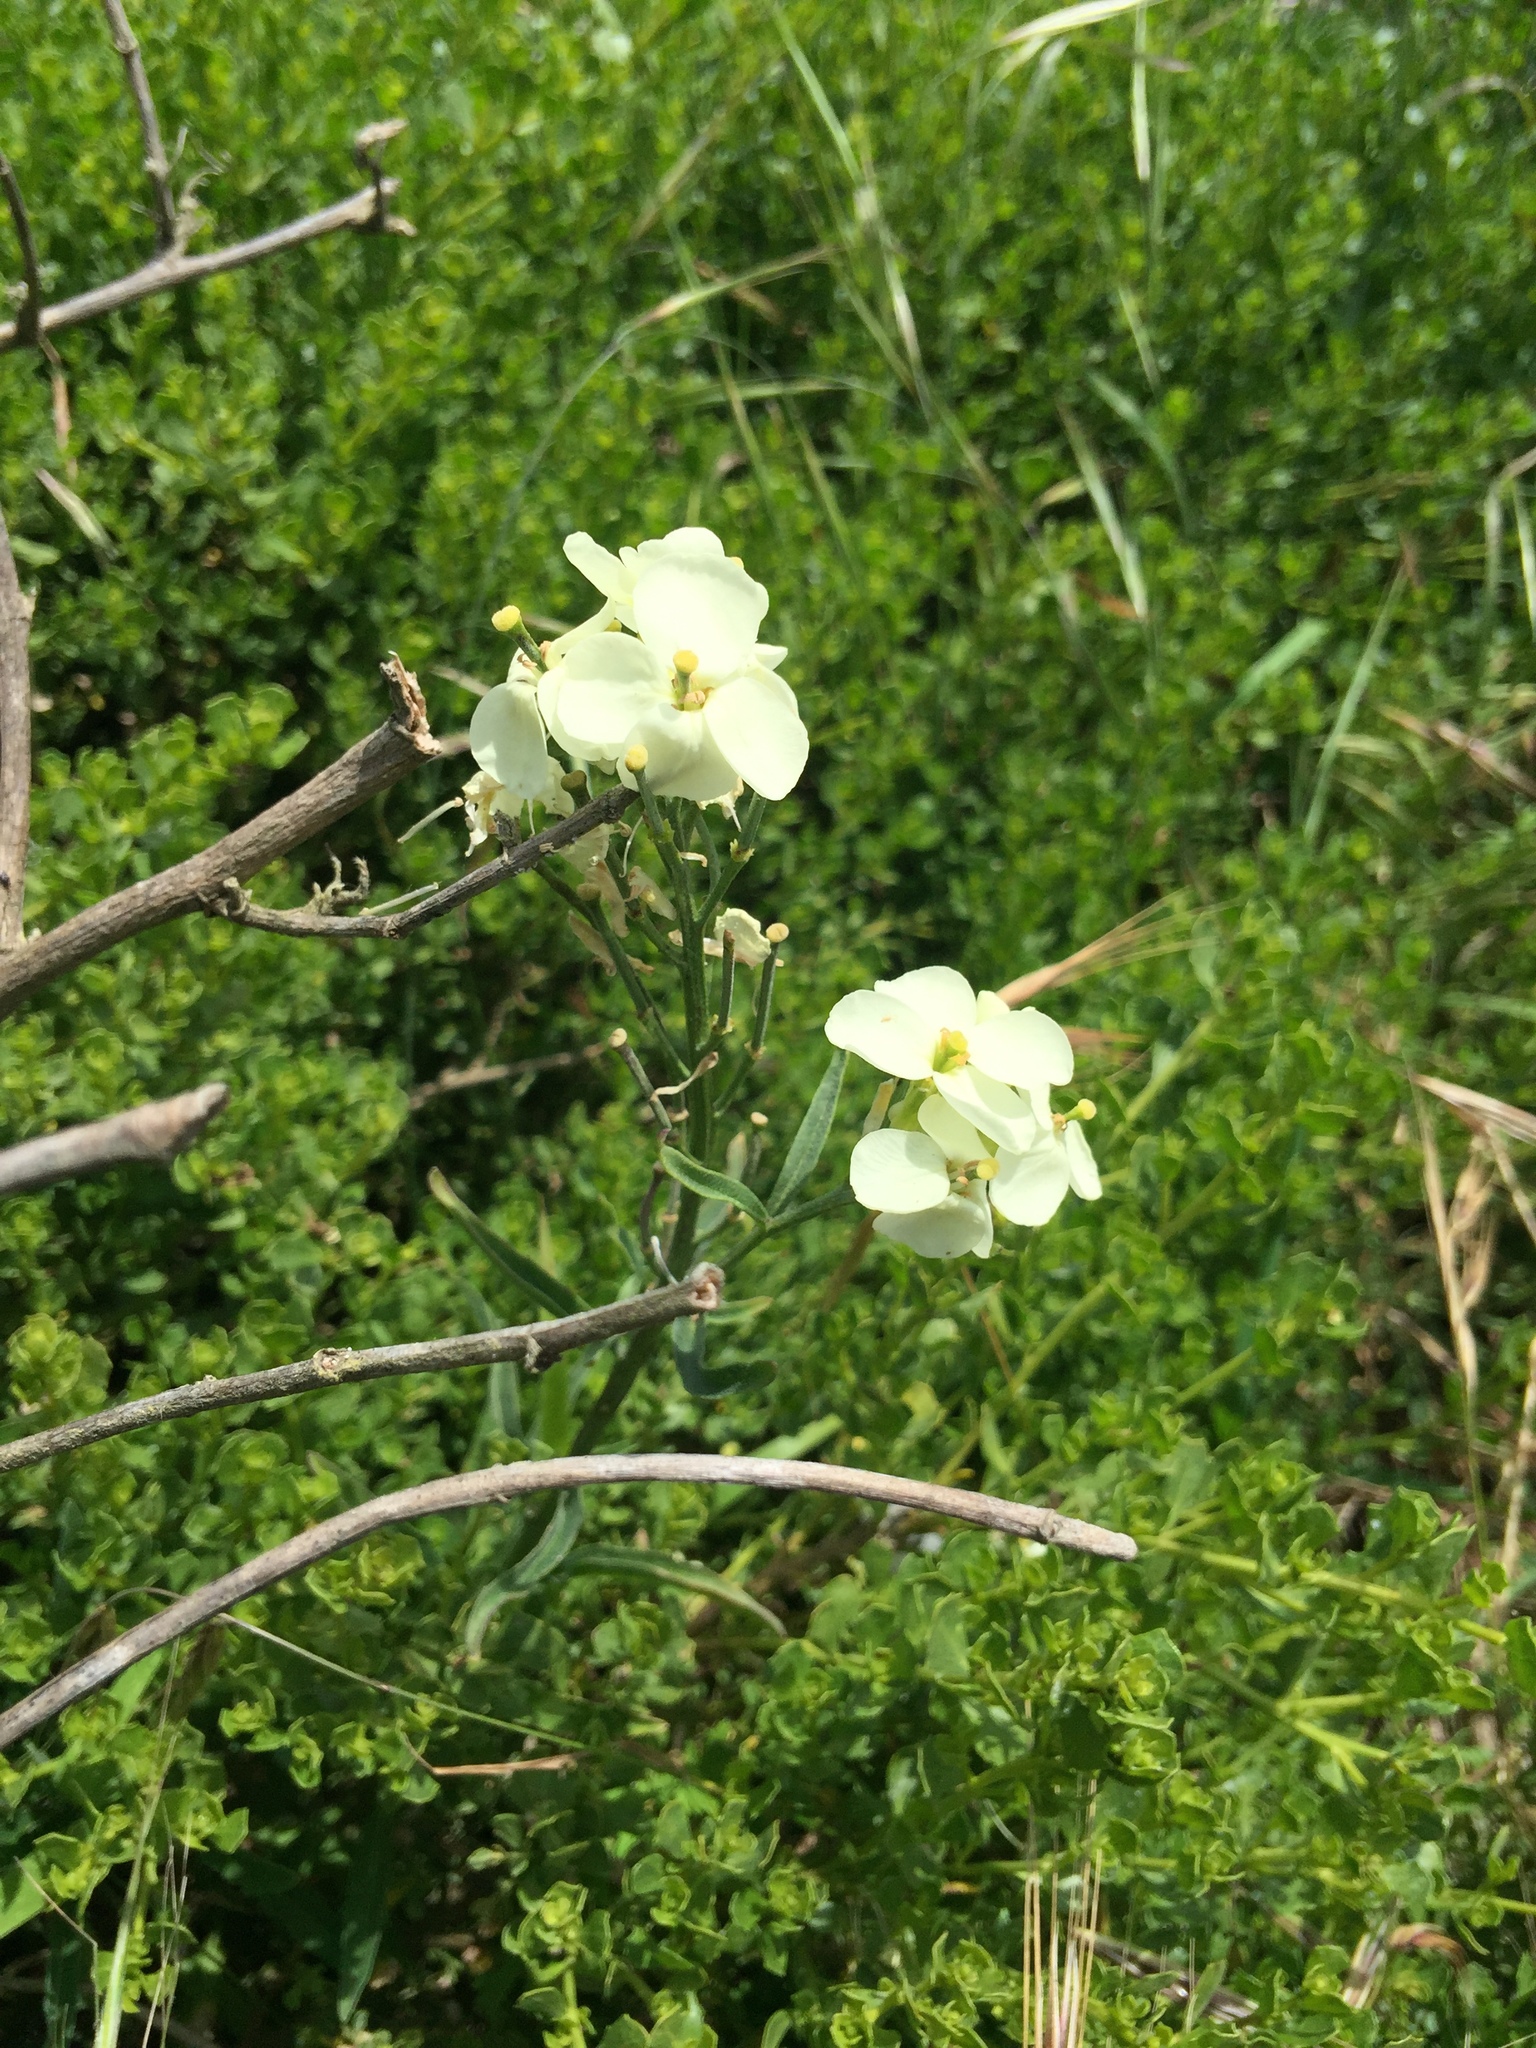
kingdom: Plantae
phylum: Tracheophyta
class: Magnoliopsida
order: Brassicales
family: Brassicaceae
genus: Erysimum
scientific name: Erysimum franciscanum
